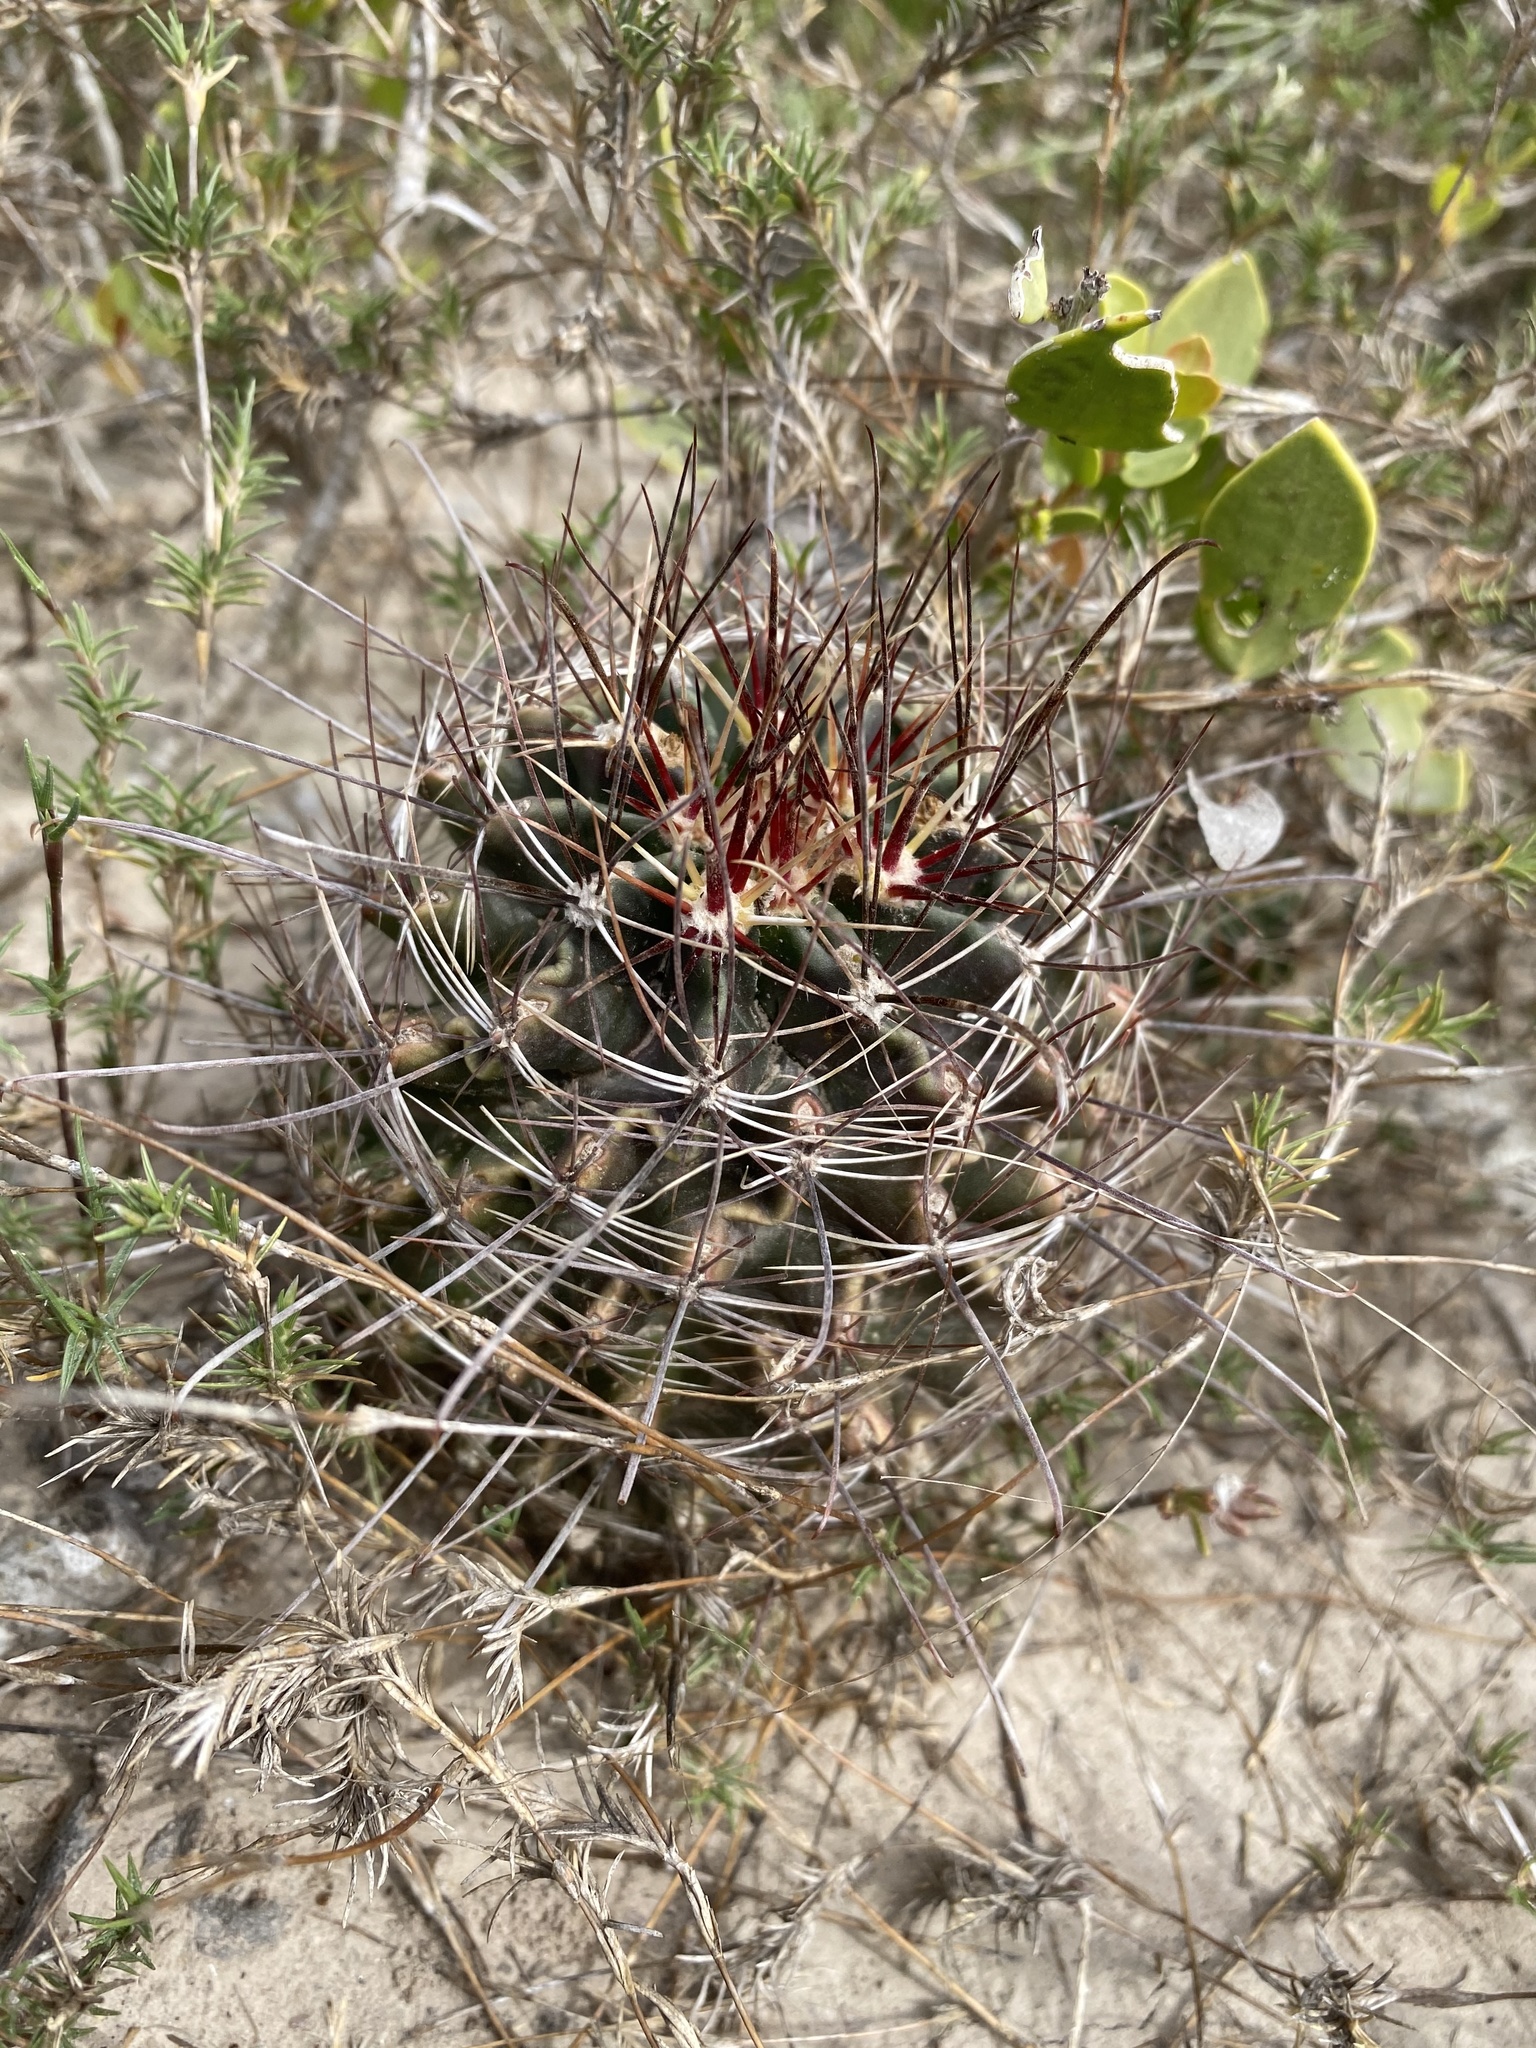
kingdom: Plantae
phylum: Tracheophyta
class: Magnoliopsida
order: Caryophyllales
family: Cactaceae
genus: Bisnaga
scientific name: Bisnaga hamatacantha
